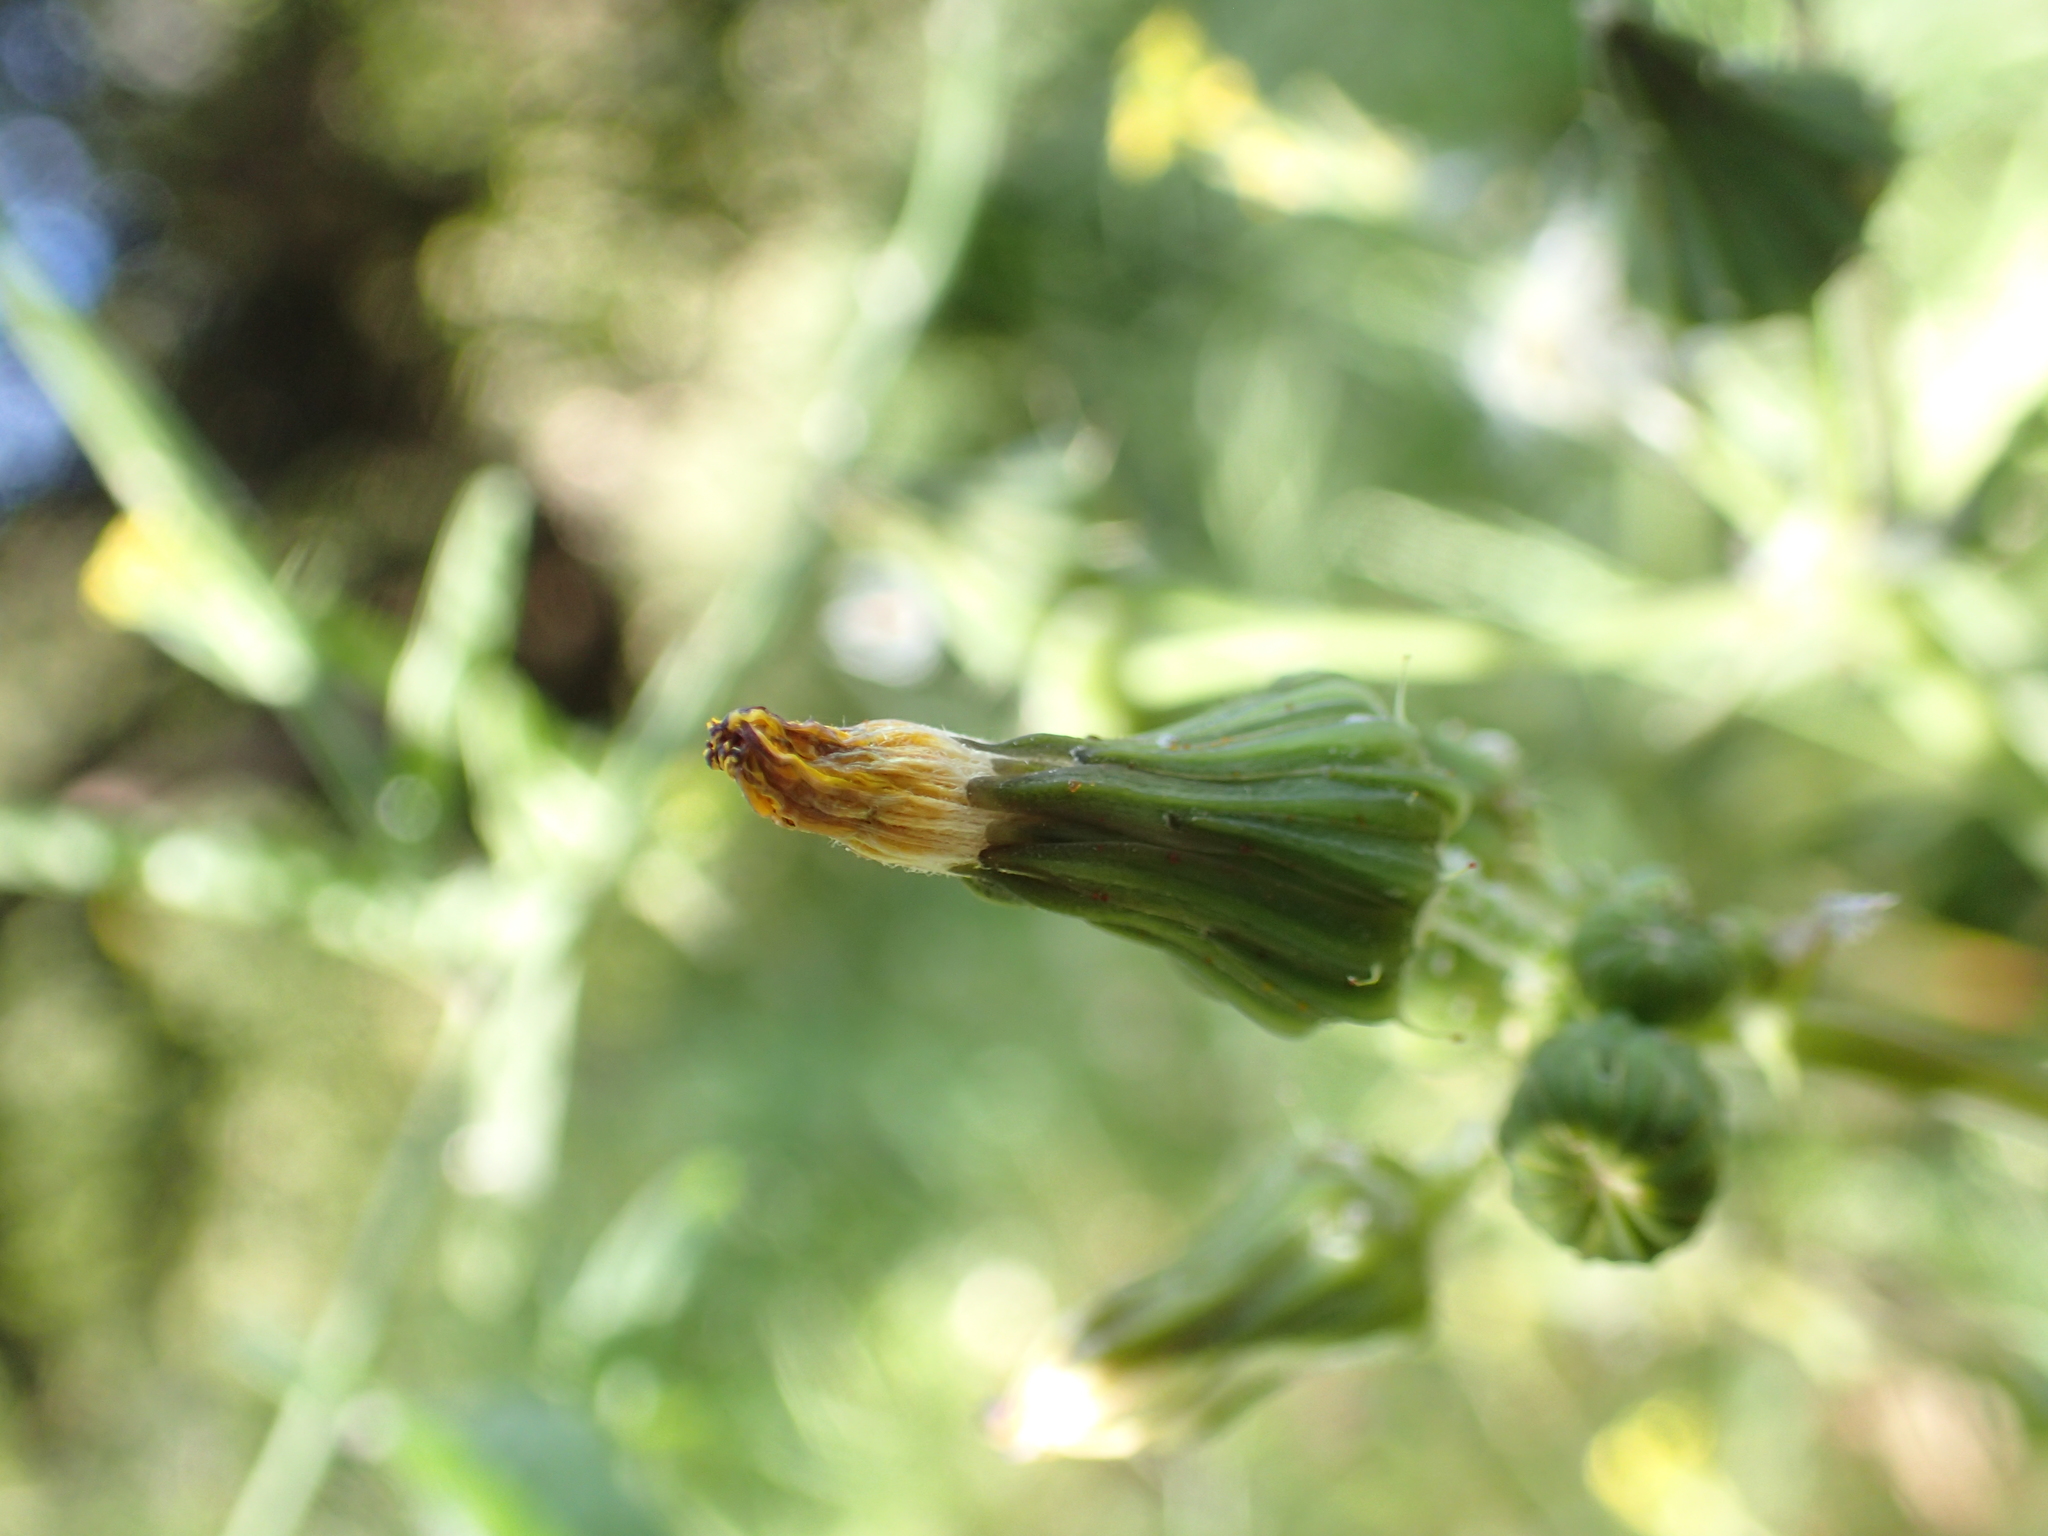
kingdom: Plantae
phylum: Tracheophyta
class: Magnoliopsida
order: Asterales
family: Asteraceae
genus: Sonchus
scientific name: Sonchus oleraceus
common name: Common sowthistle
